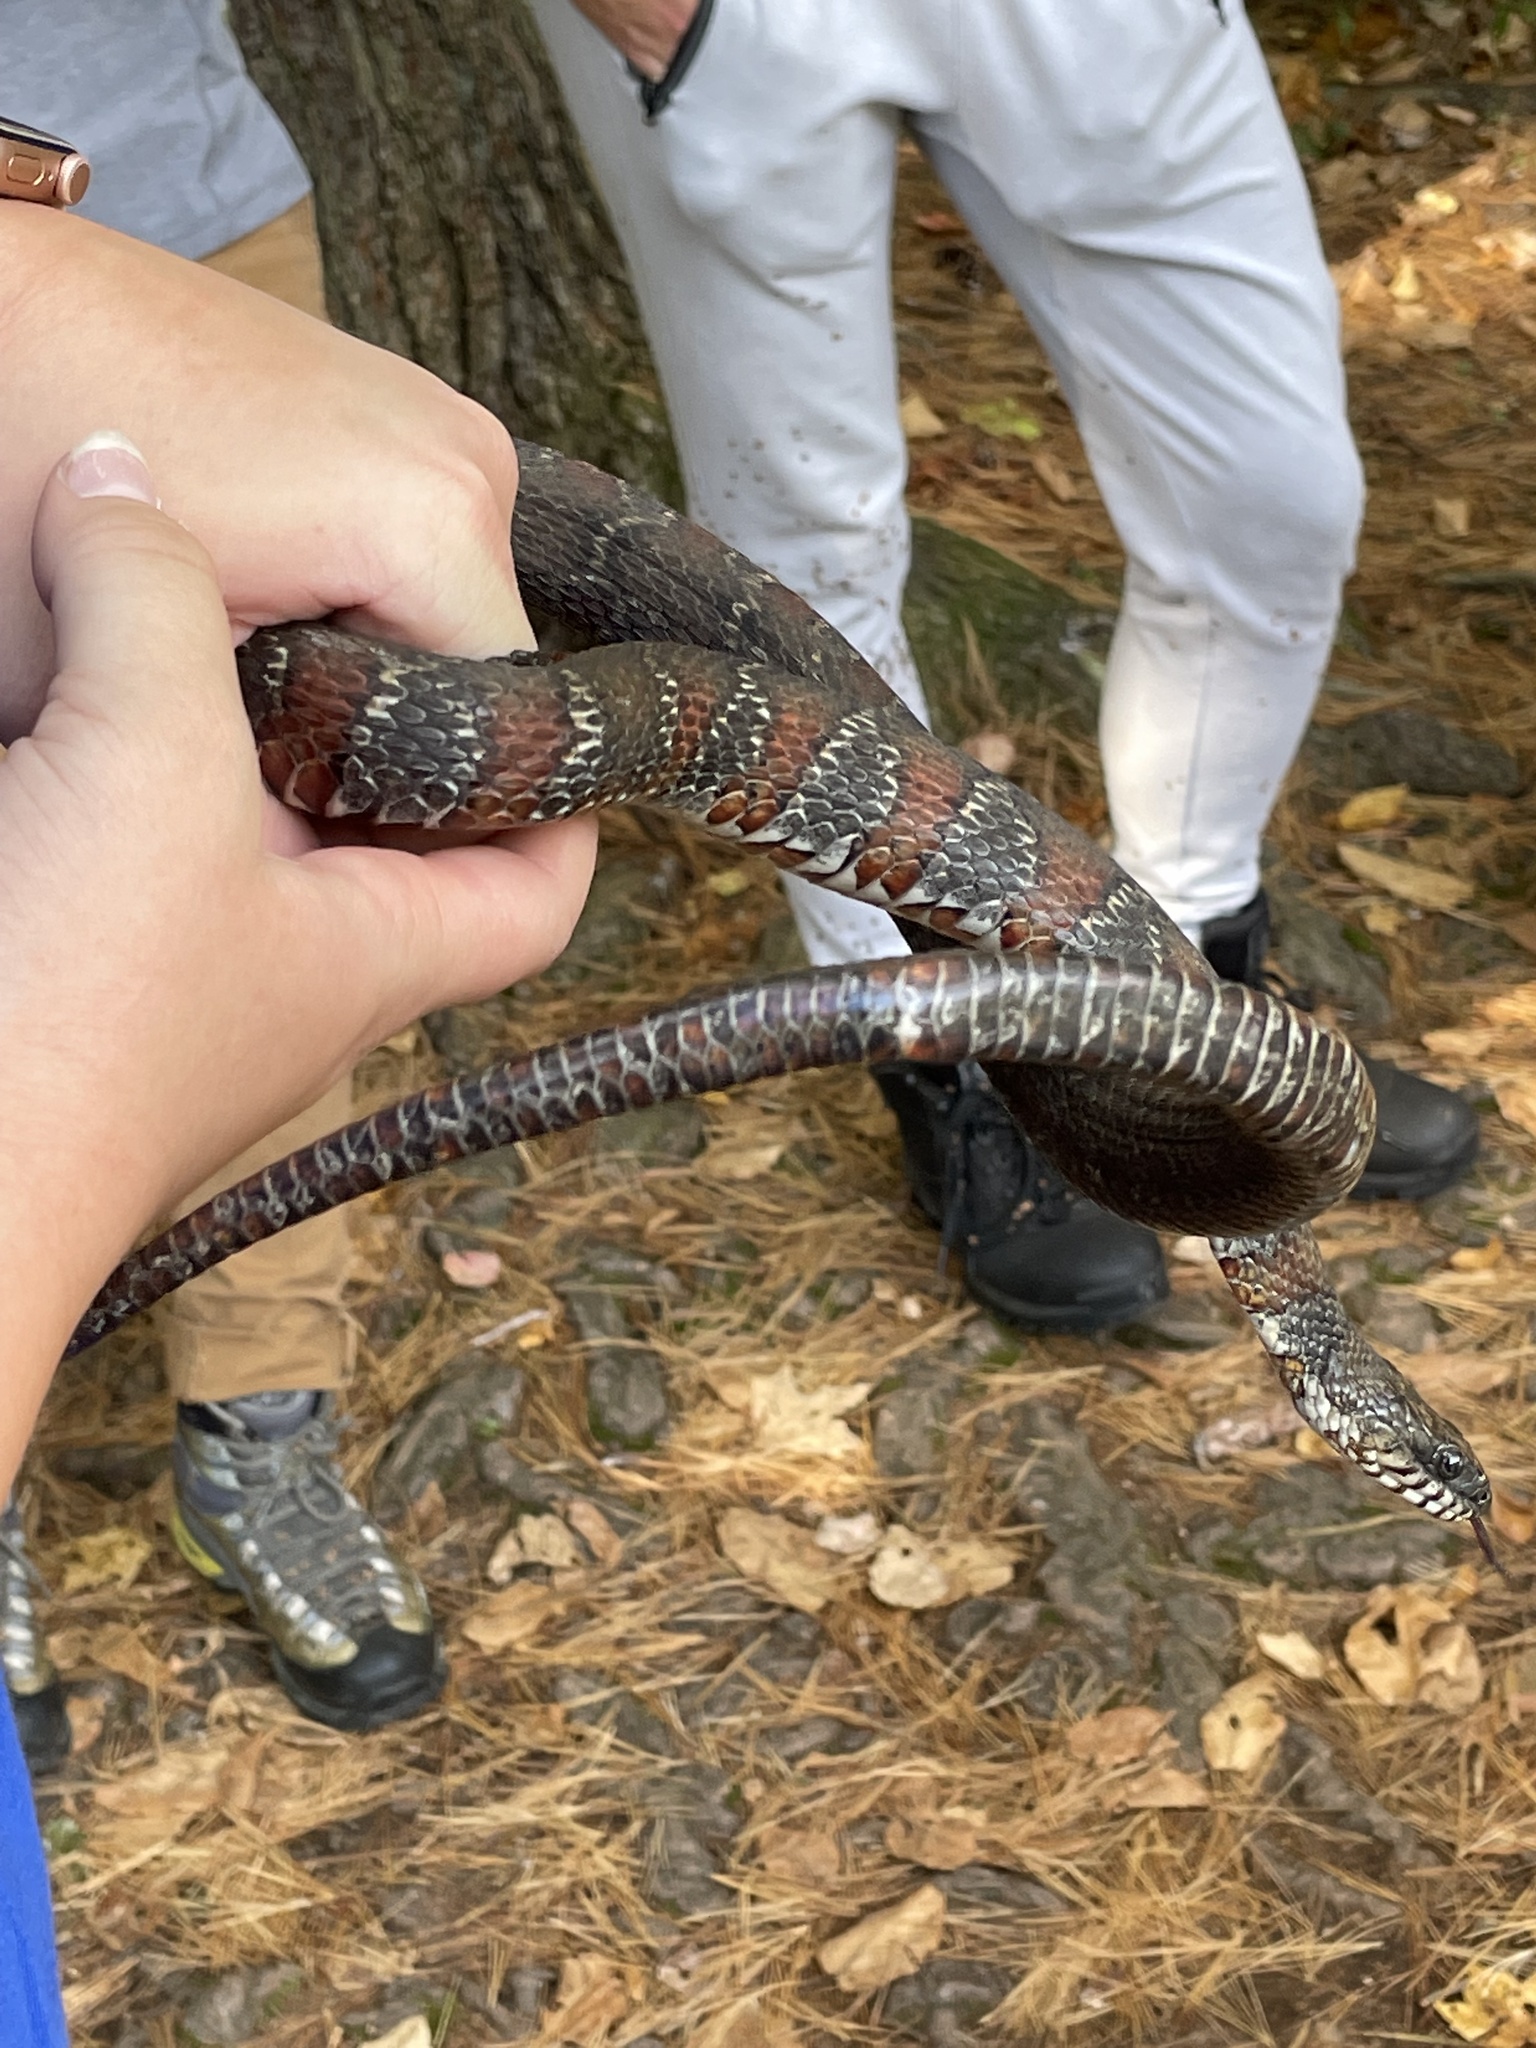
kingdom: Animalia
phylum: Chordata
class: Squamata
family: Colubridae
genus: Nerodia
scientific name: Nerodia sipedon
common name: Northern water snake
